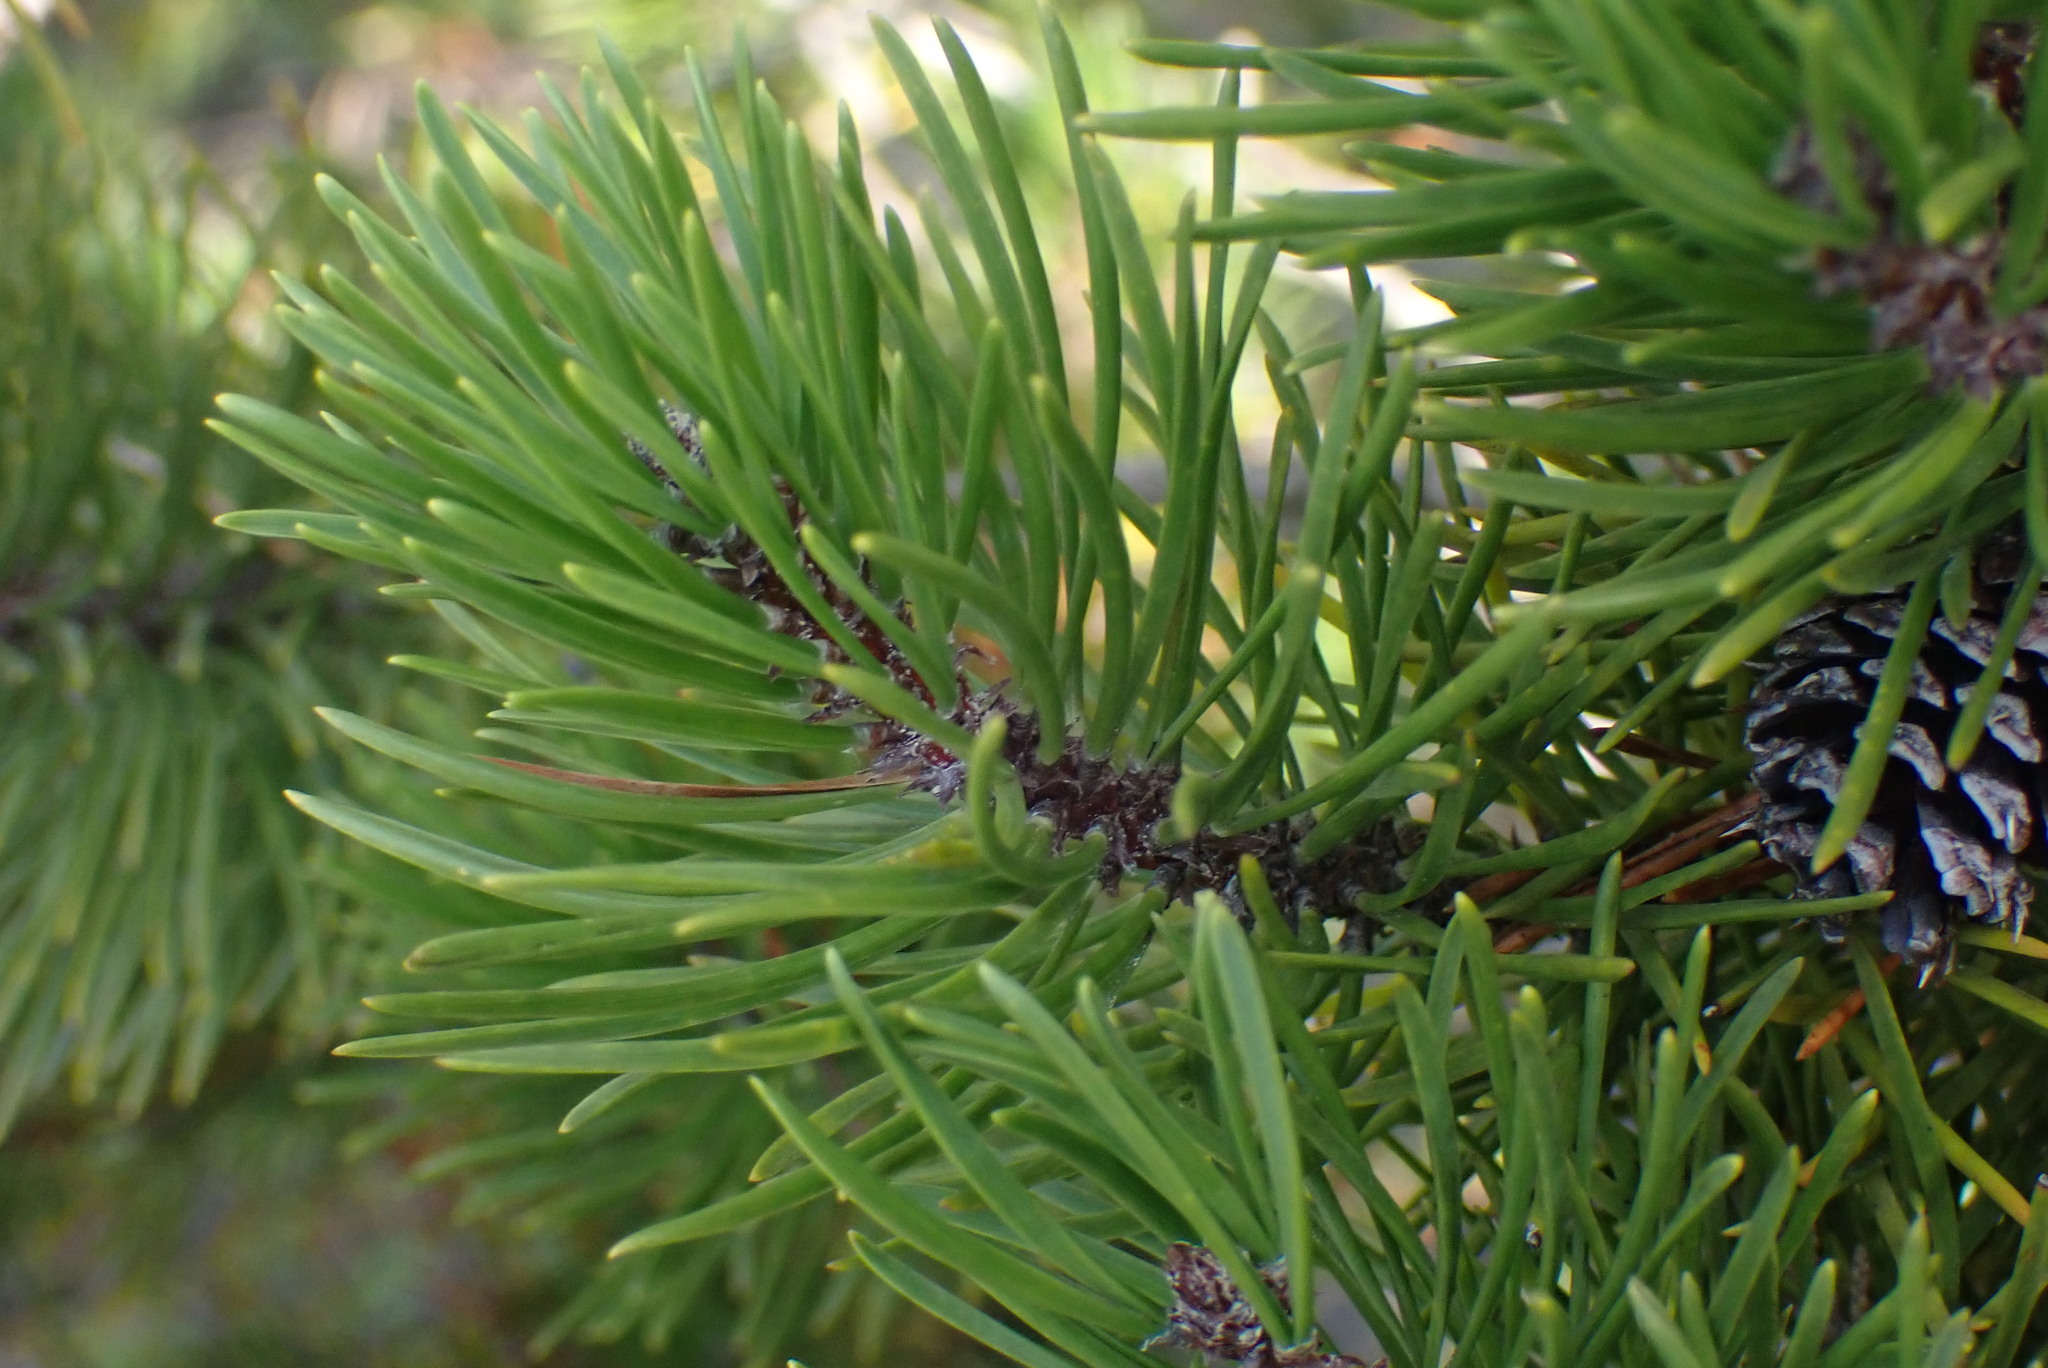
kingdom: Plantae
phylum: Tracheophyta
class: Pinopsida
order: Pinales
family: Pinaceae
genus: Pinus
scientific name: Pinus contorta
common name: Lodgepole pine
